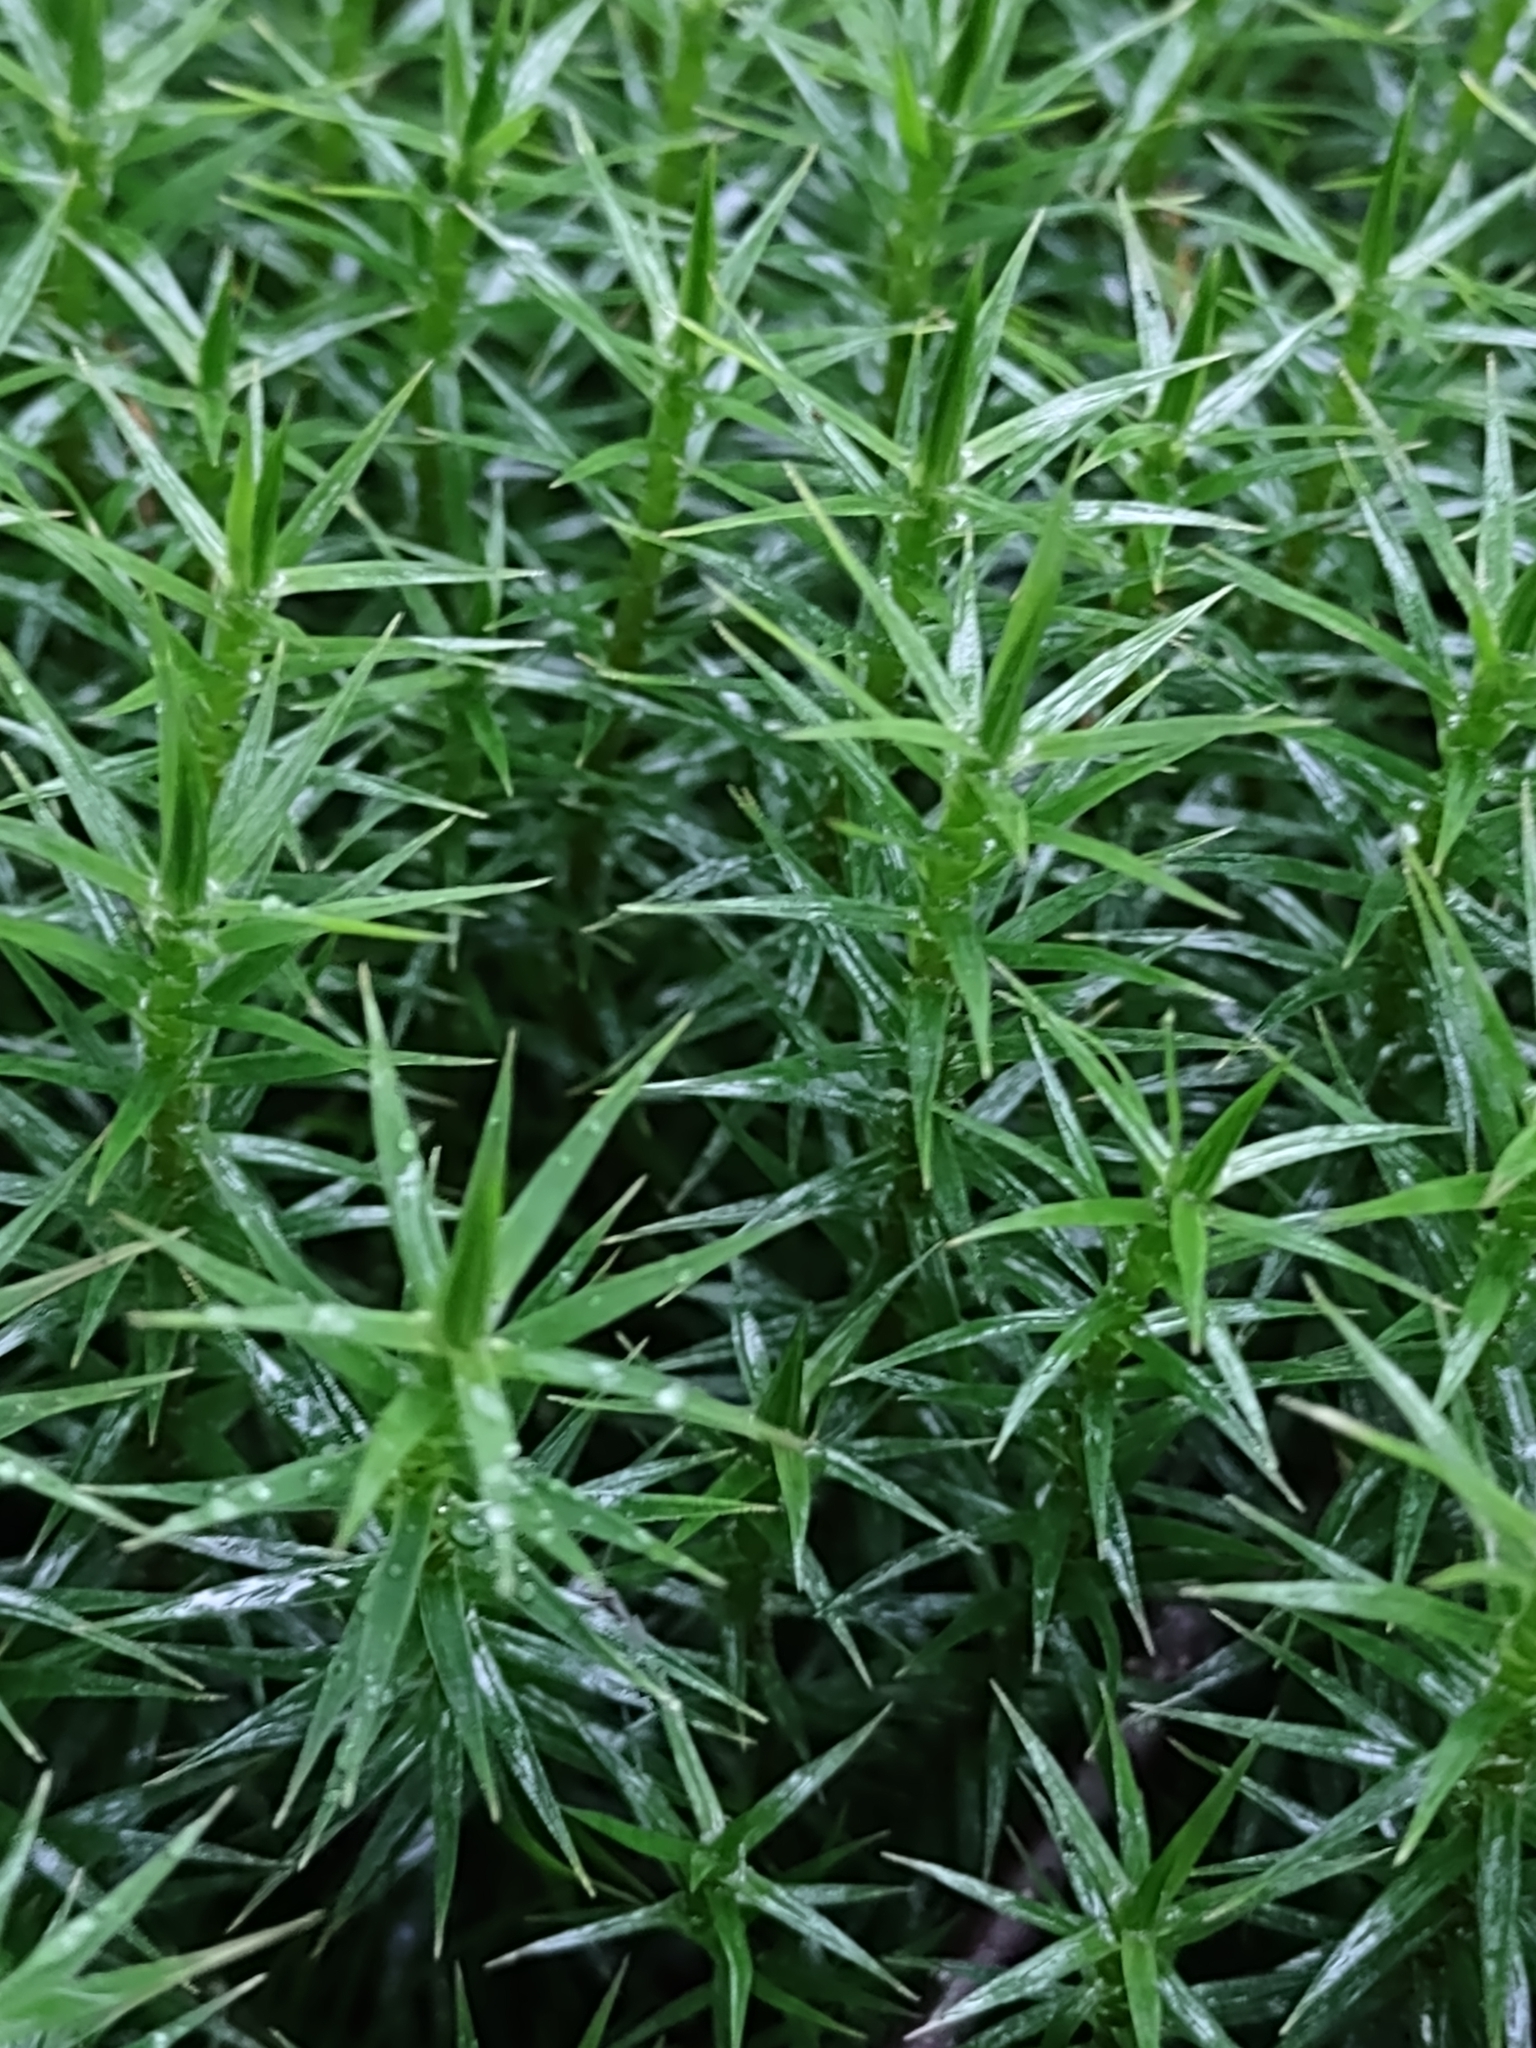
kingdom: Plantae
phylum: Bryophyta
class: Polytrichopsida
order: Polytrichales
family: Polytrichaceae
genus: Polytrichum
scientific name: Polytrichum formosum
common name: Bank haircap moss
